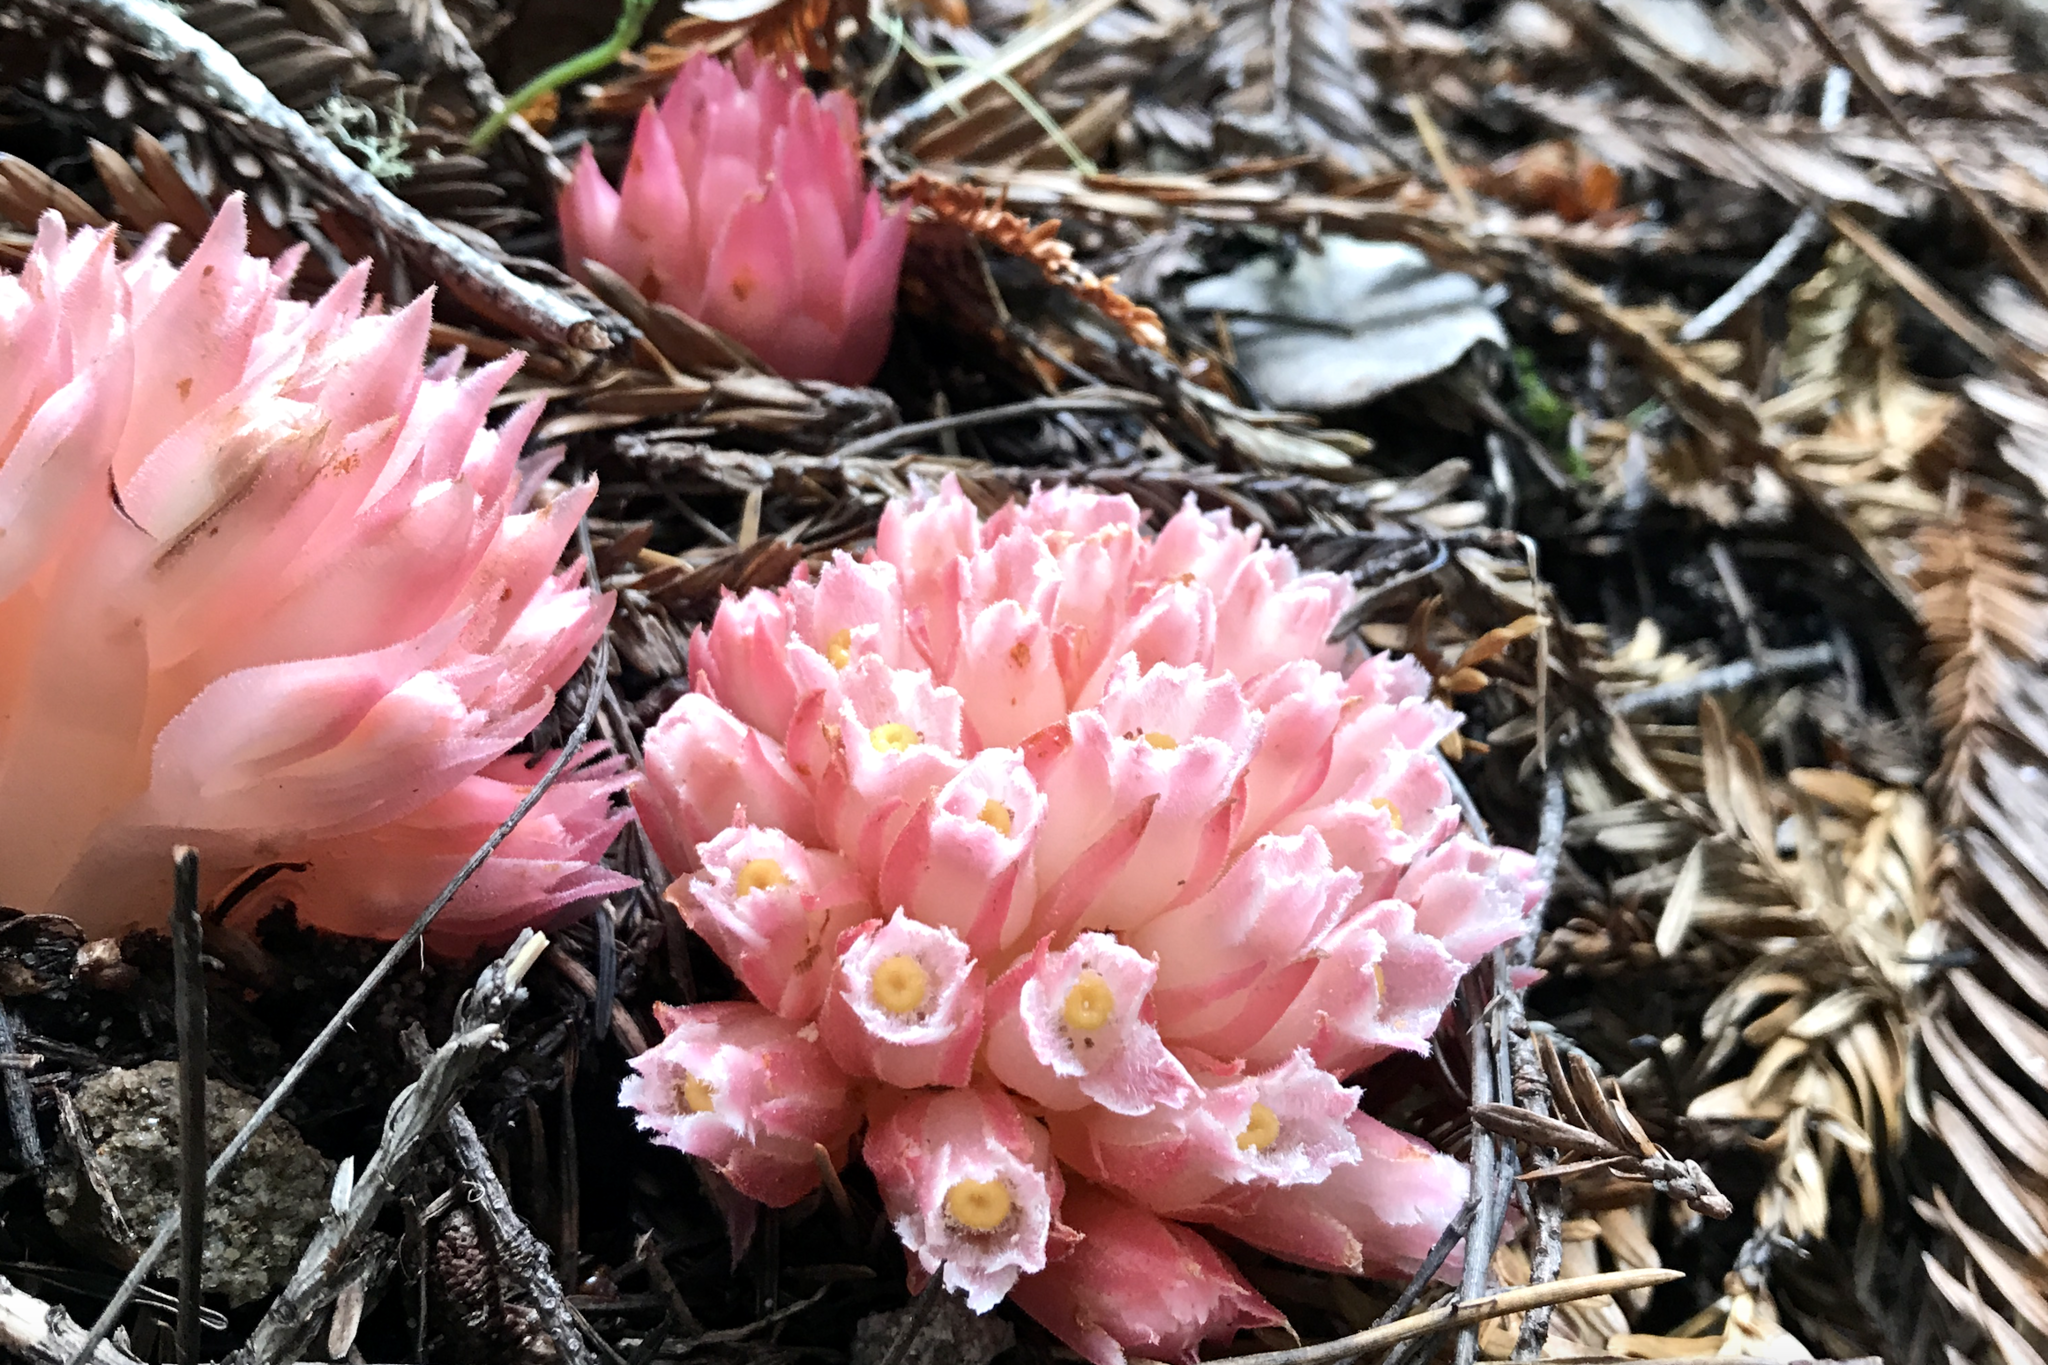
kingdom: Plantae
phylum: Tracheophyta
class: Magnoliopsida
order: Ericales
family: Ericaceae
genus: Hemitomes
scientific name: Hemitomes congestum
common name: Cone plant
